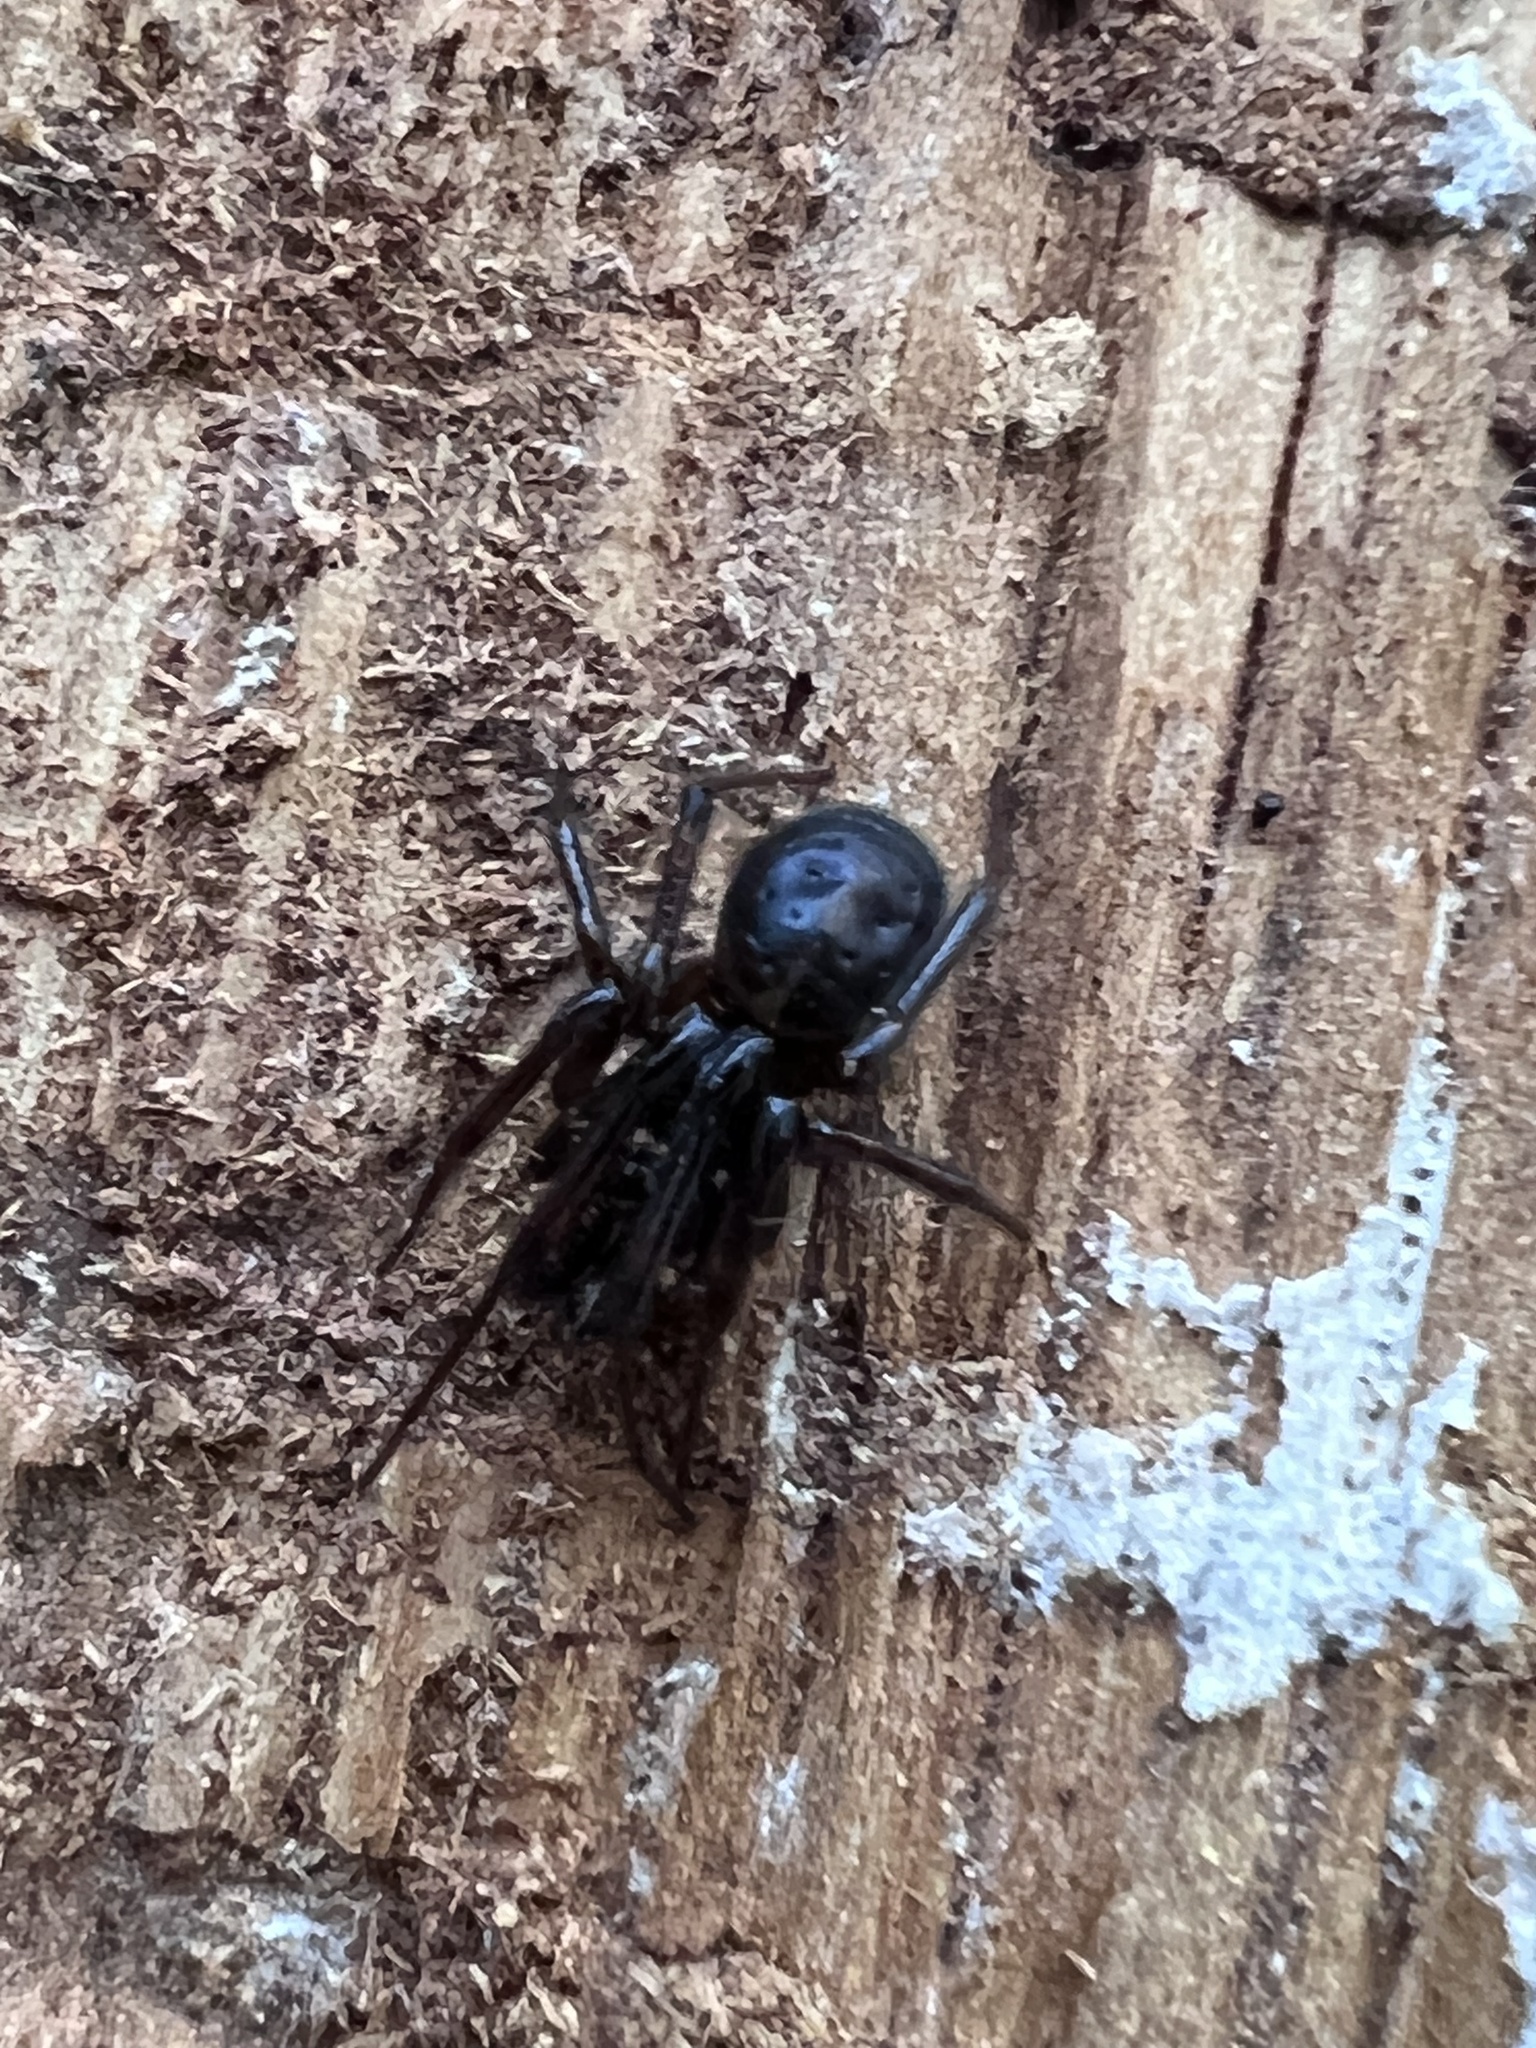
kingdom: Animalia
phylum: Arthropoda
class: Arachnida
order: Araneae
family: Theridiidae
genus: Steatoda
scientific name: Steatoda borealis
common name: Boreal combfoot
